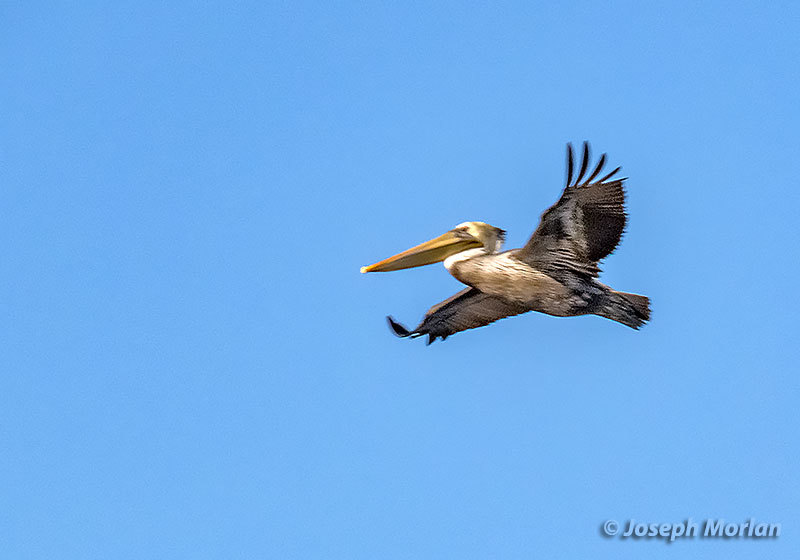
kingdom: Animalia
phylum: Chordata
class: Aves
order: Pelecaniformes
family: Pelecanidae
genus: Pelecanus
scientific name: Pelecanus occidentalis
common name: Brown pelican
